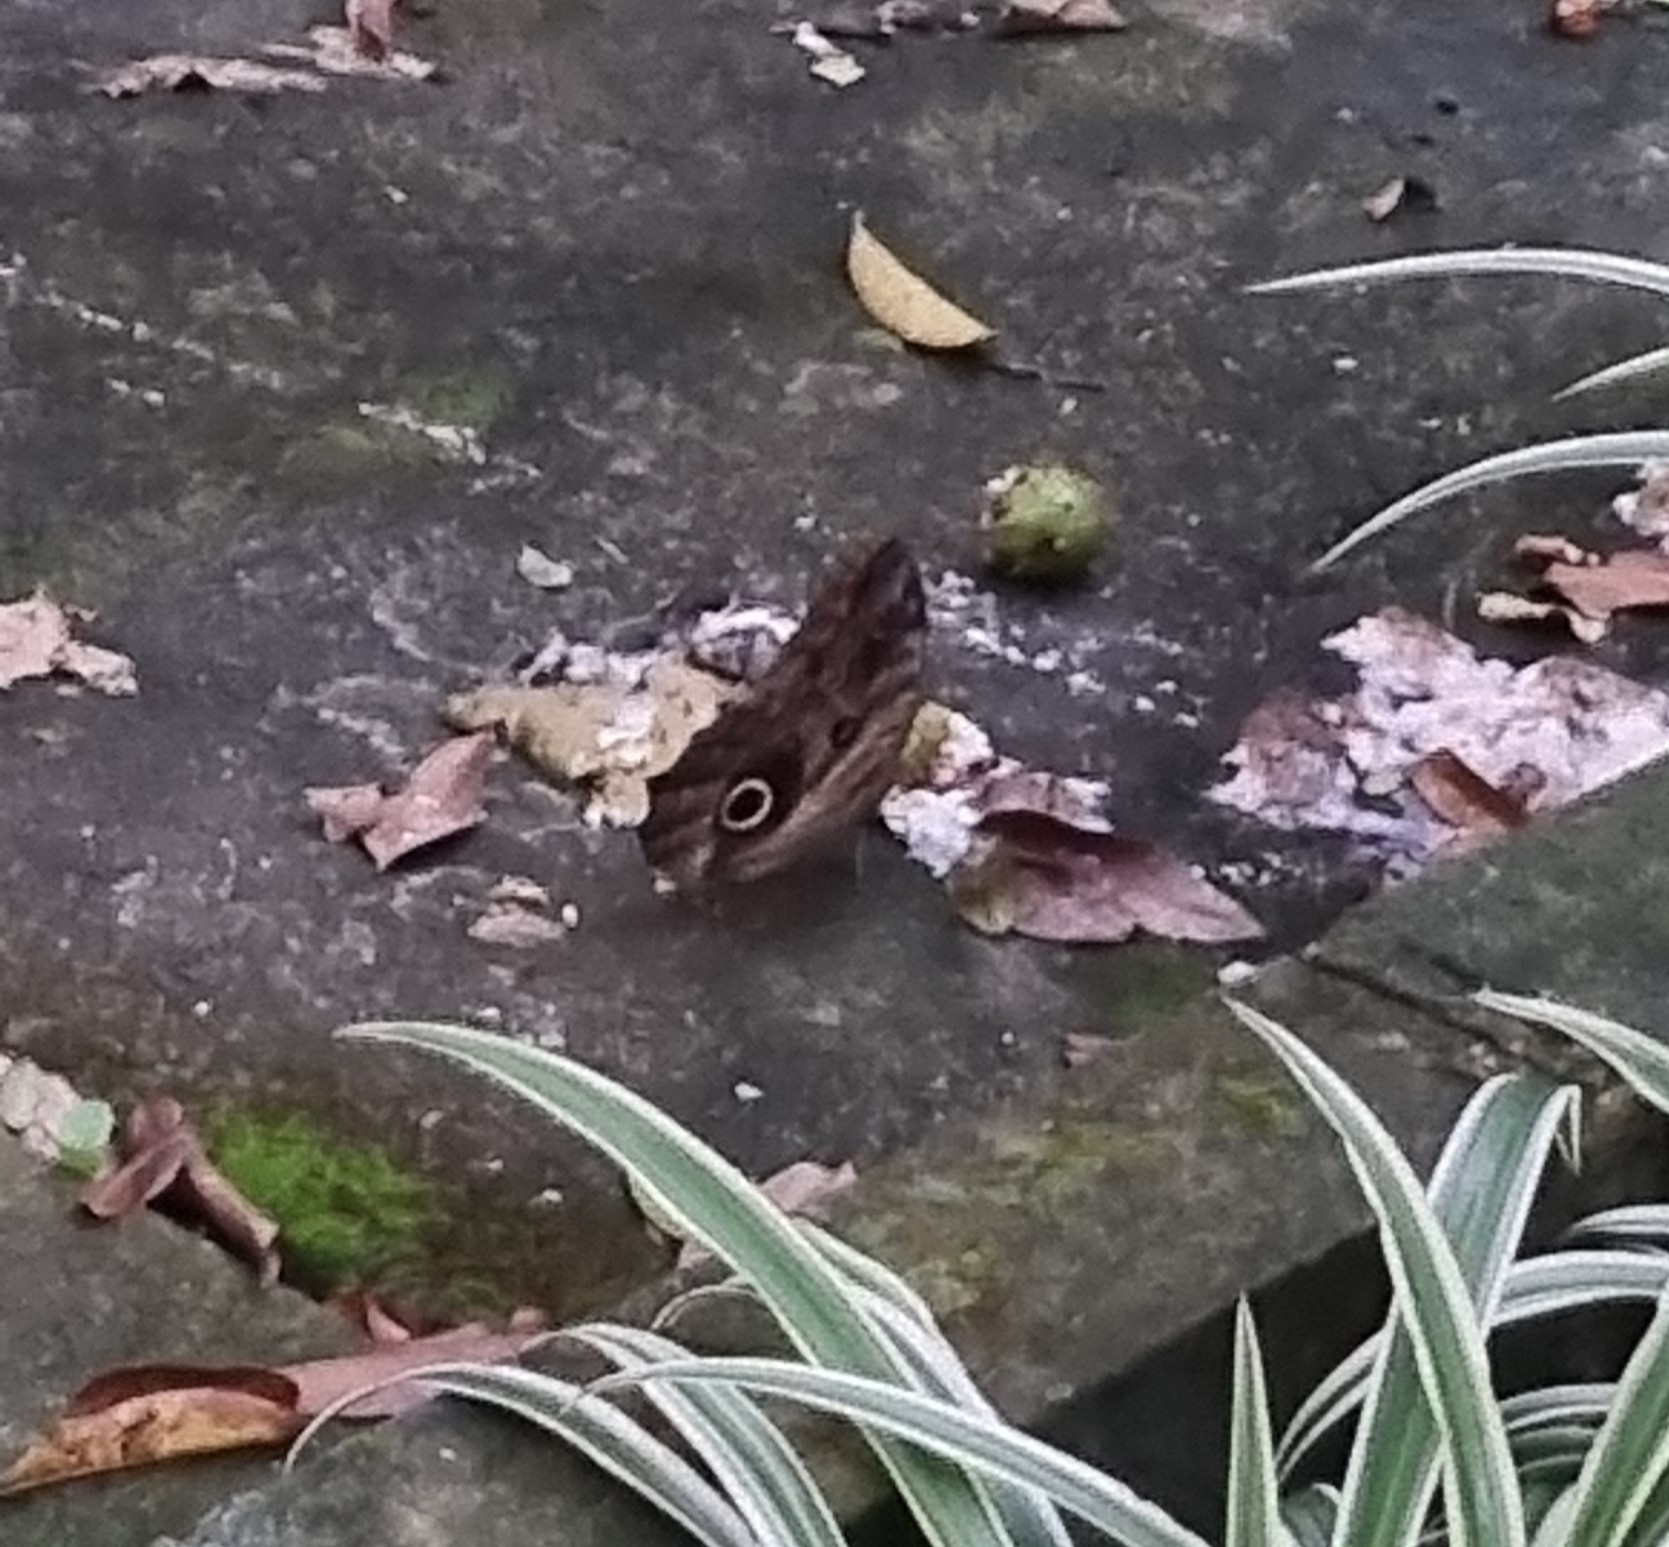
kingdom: Animalia
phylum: Arthropoda
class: Insecta
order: Lepidoptera
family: Nymphalidae
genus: Caligo
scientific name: Caligo brasiliensis
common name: Dark owl-butterfly
